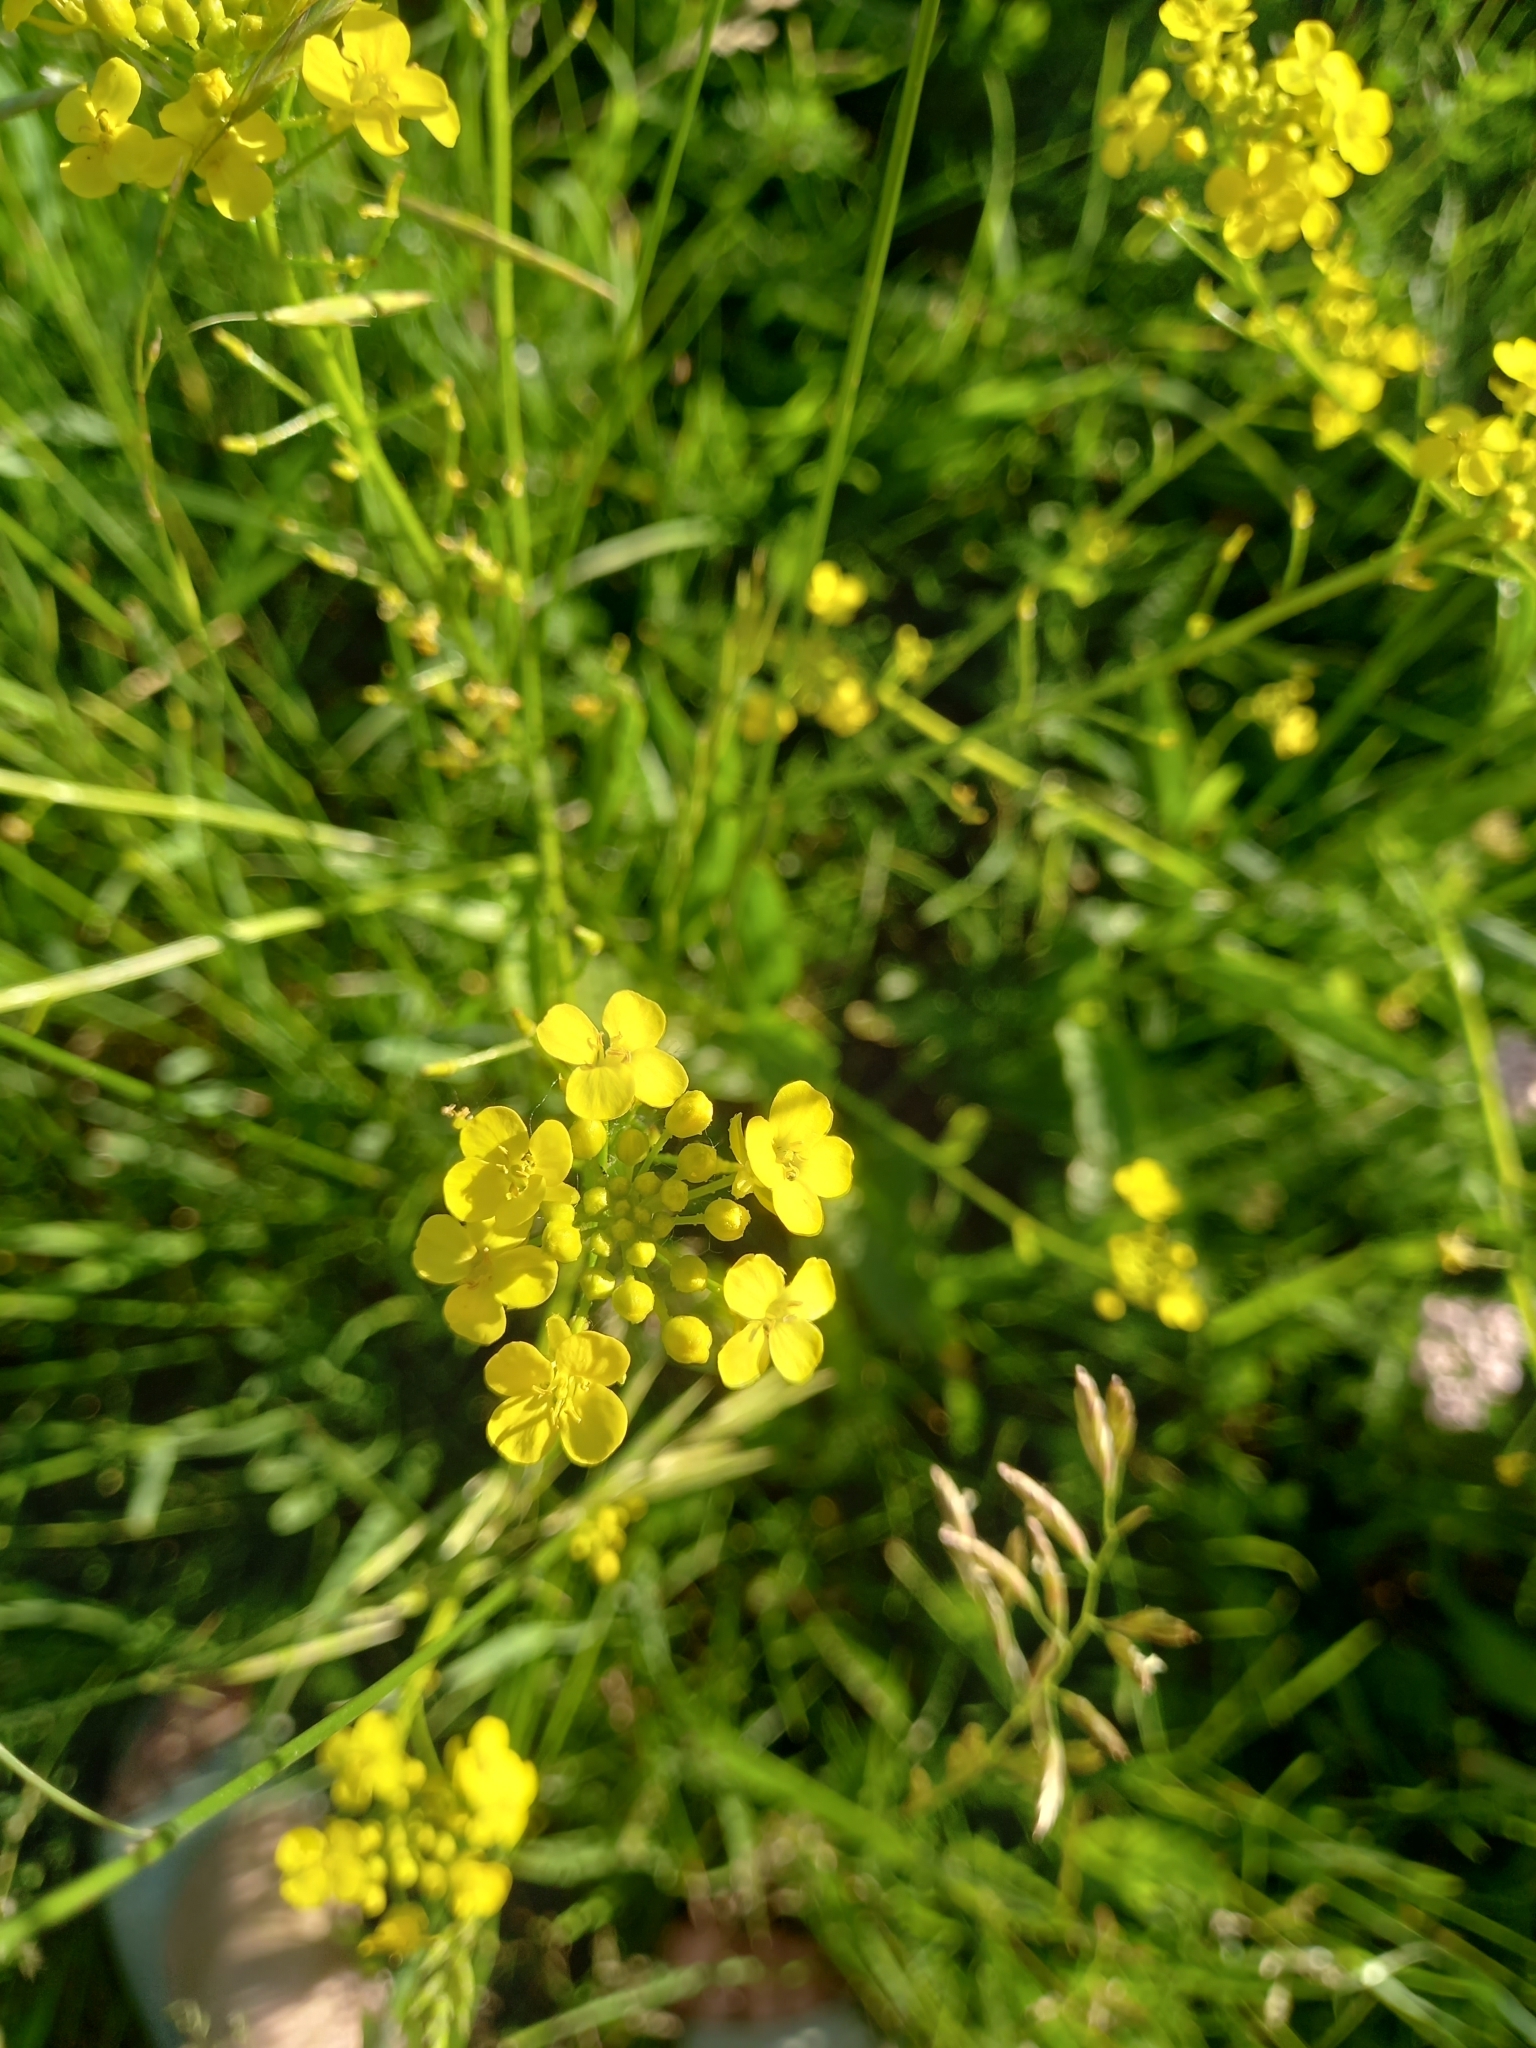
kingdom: Plantae
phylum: Tracheophyta
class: Magnoliopsida
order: Brassicales
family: Brassicaceae
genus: Bunias
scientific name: Bunias orientalis
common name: Warty-cabbage
